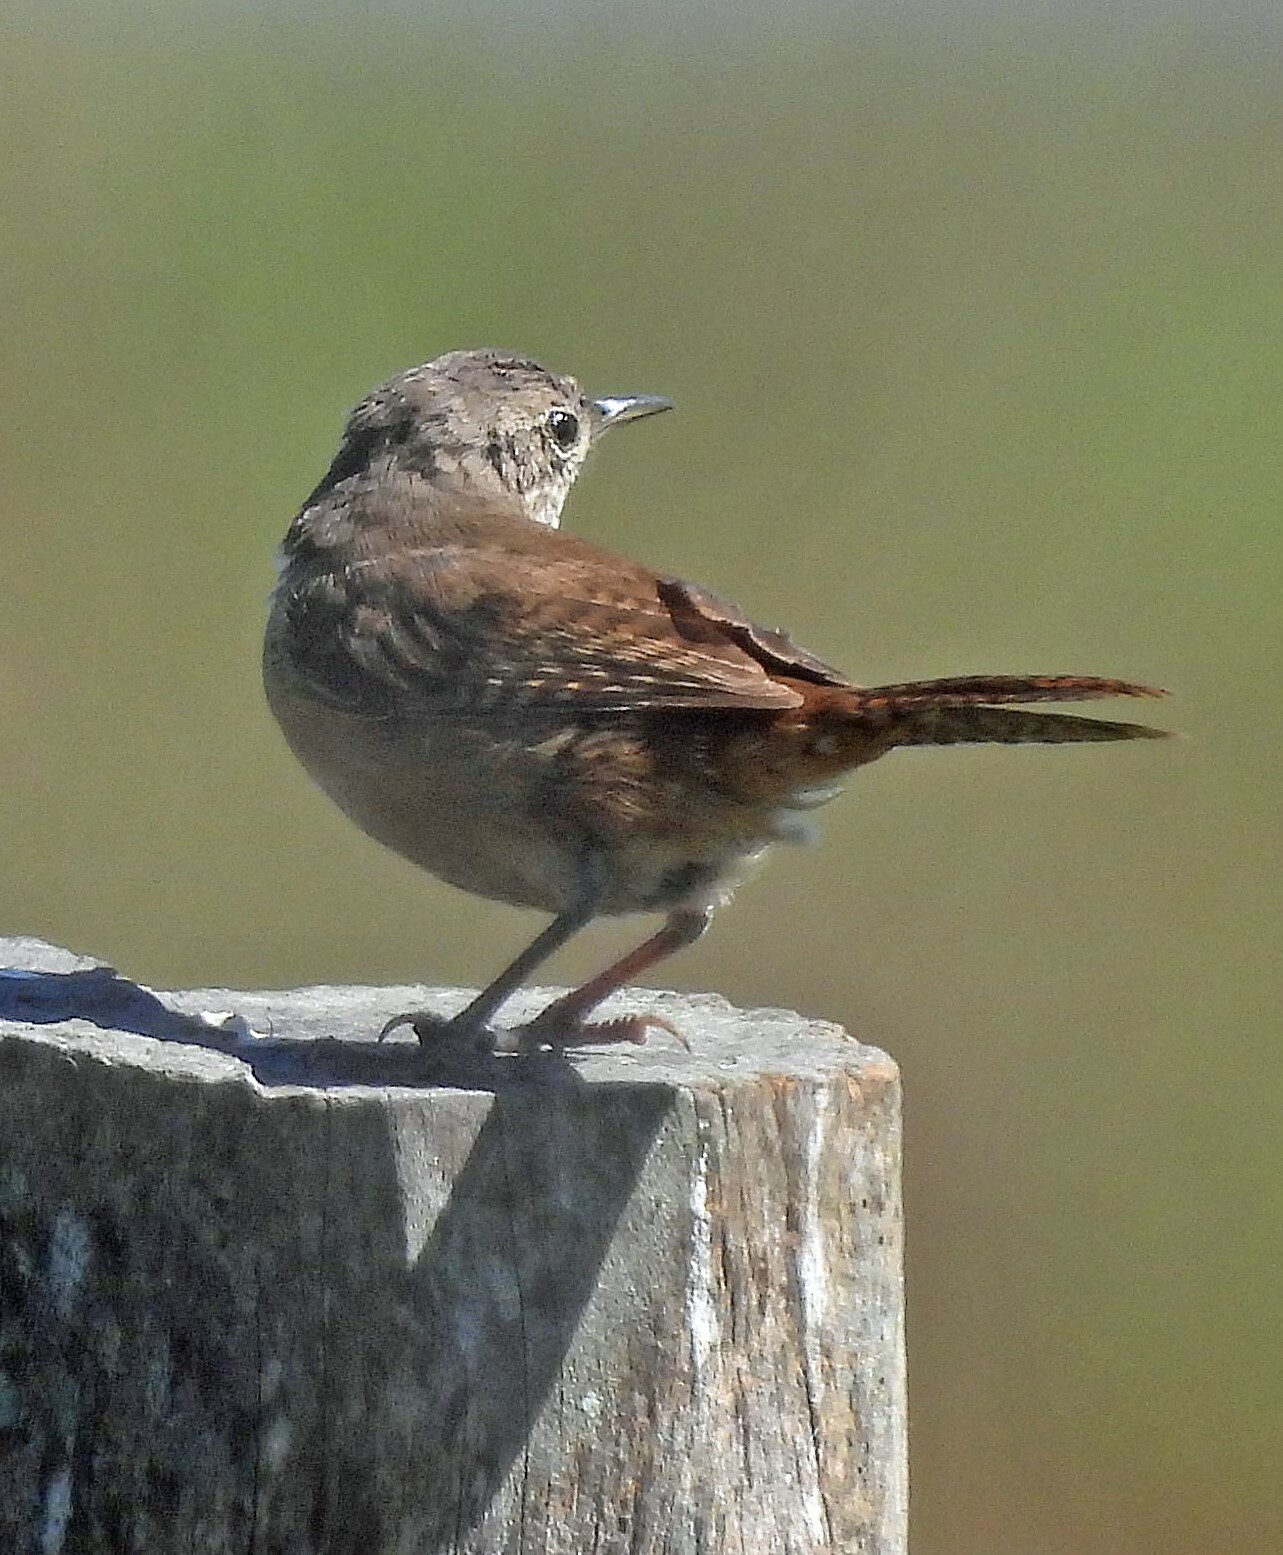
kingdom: Animalia
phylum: Chordata
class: Aves
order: Passeriformes
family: Troglodytidae
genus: Troglodytes
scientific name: Troglodytes aedon
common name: House wren
